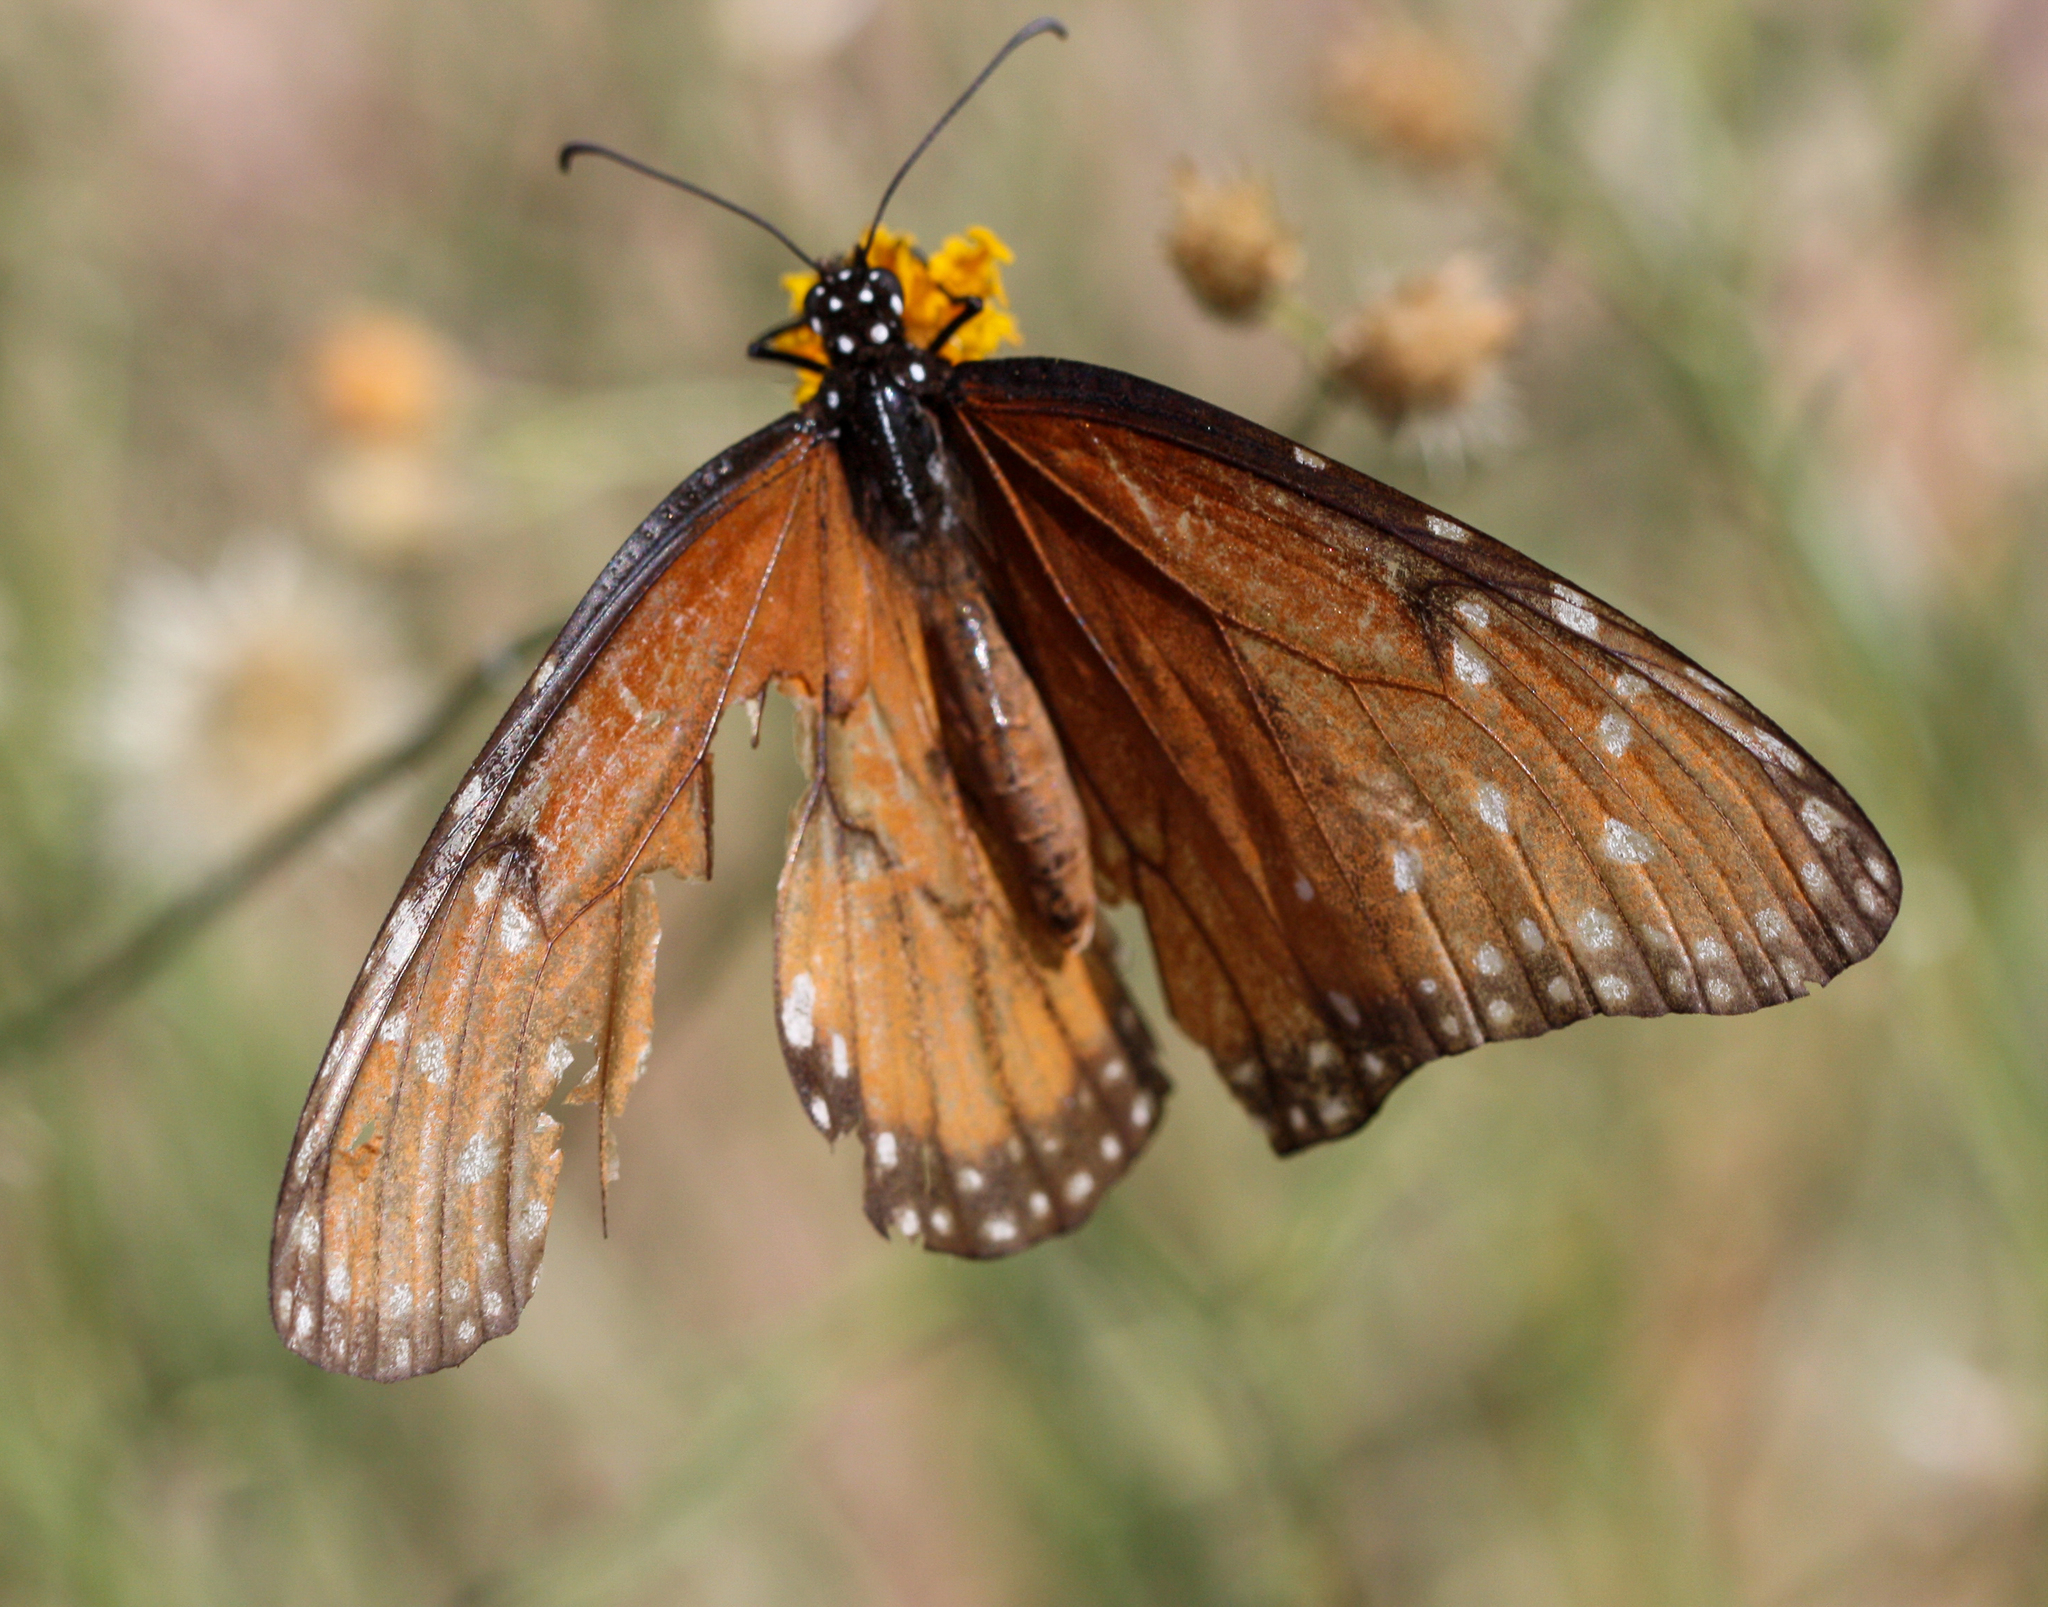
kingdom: Animalia
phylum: Arthropoda
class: Insecta
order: Lepidoptera
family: Nymphalidae
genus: Danaus
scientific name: Danaus gilippus
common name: Queen
